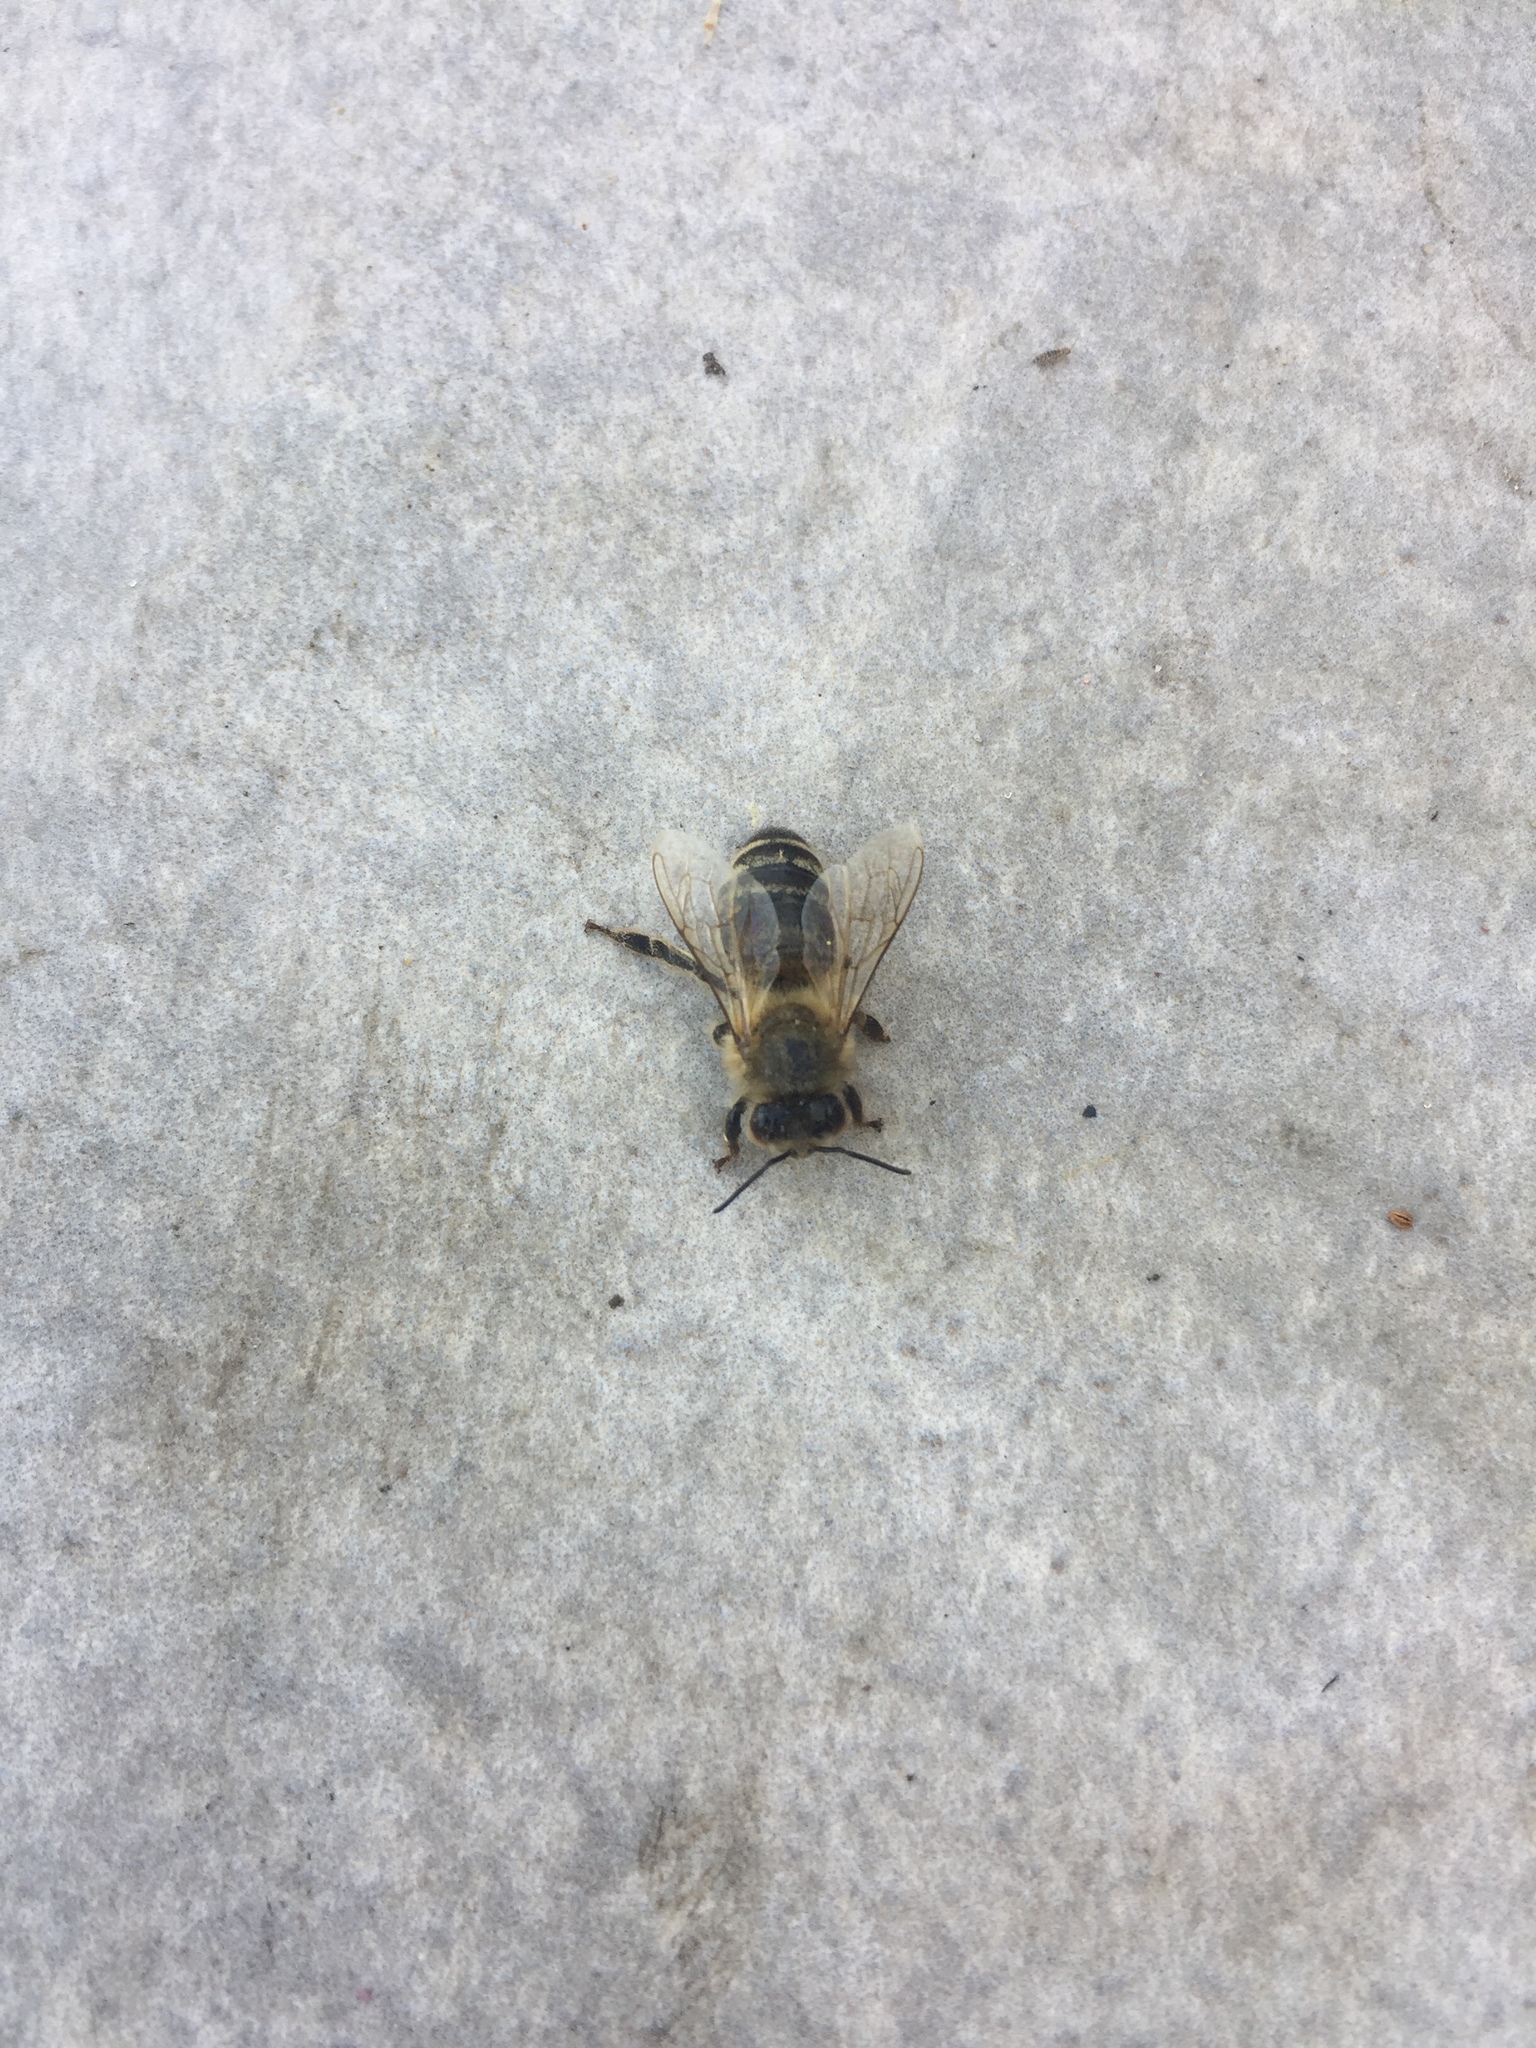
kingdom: Animalia
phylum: Arthropoda
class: Insecta
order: Hymenoptera
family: Apidae
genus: Apis
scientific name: Apis mellifera
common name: Honey bee
